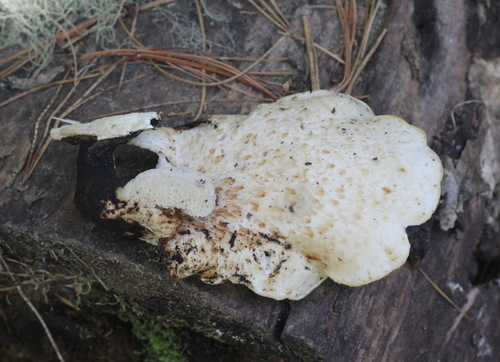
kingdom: Fungi
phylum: Basidiomycota
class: Agaricomycetes
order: Polyporales
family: Polyporaceae
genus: Cerioporus
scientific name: Cerioporus squamosus
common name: Dryad's saddle
